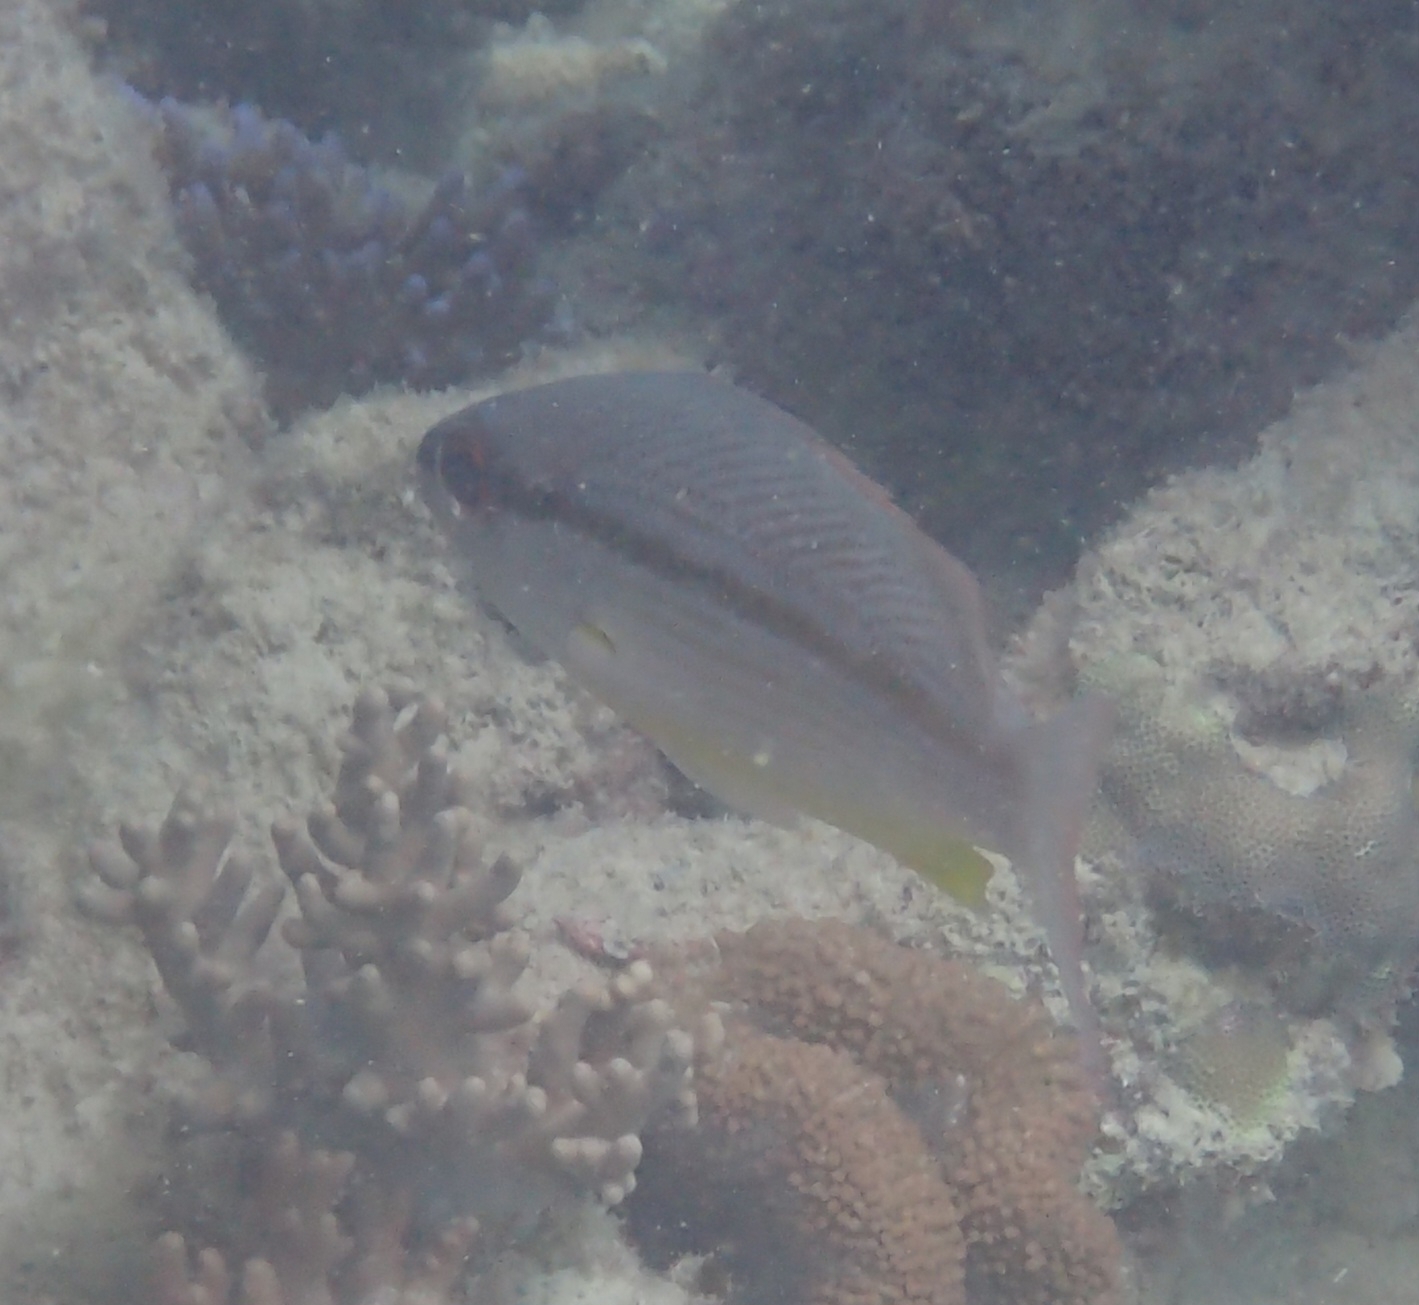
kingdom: Animalia
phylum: Chordata
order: Perciformes
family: Lutjanidae
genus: Lutjanus
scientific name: Lutjanus vitta
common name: Brownstripe red snapper
